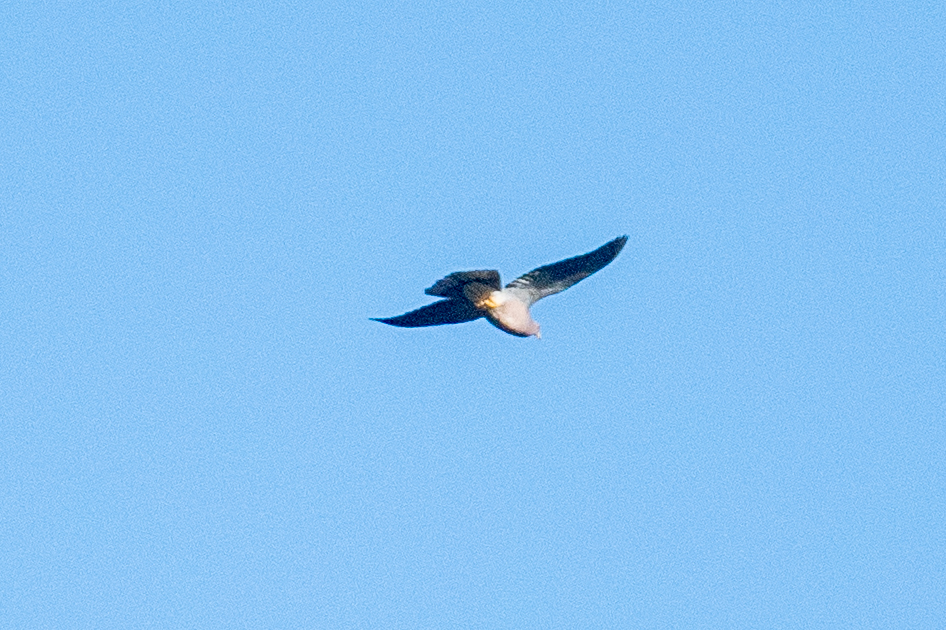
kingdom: Animalia
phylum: Chordata
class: Aves
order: Columbiformes
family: Columbidae
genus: Patagioenas
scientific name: Patagioenas fasciata
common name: Band-tailed pigeon
